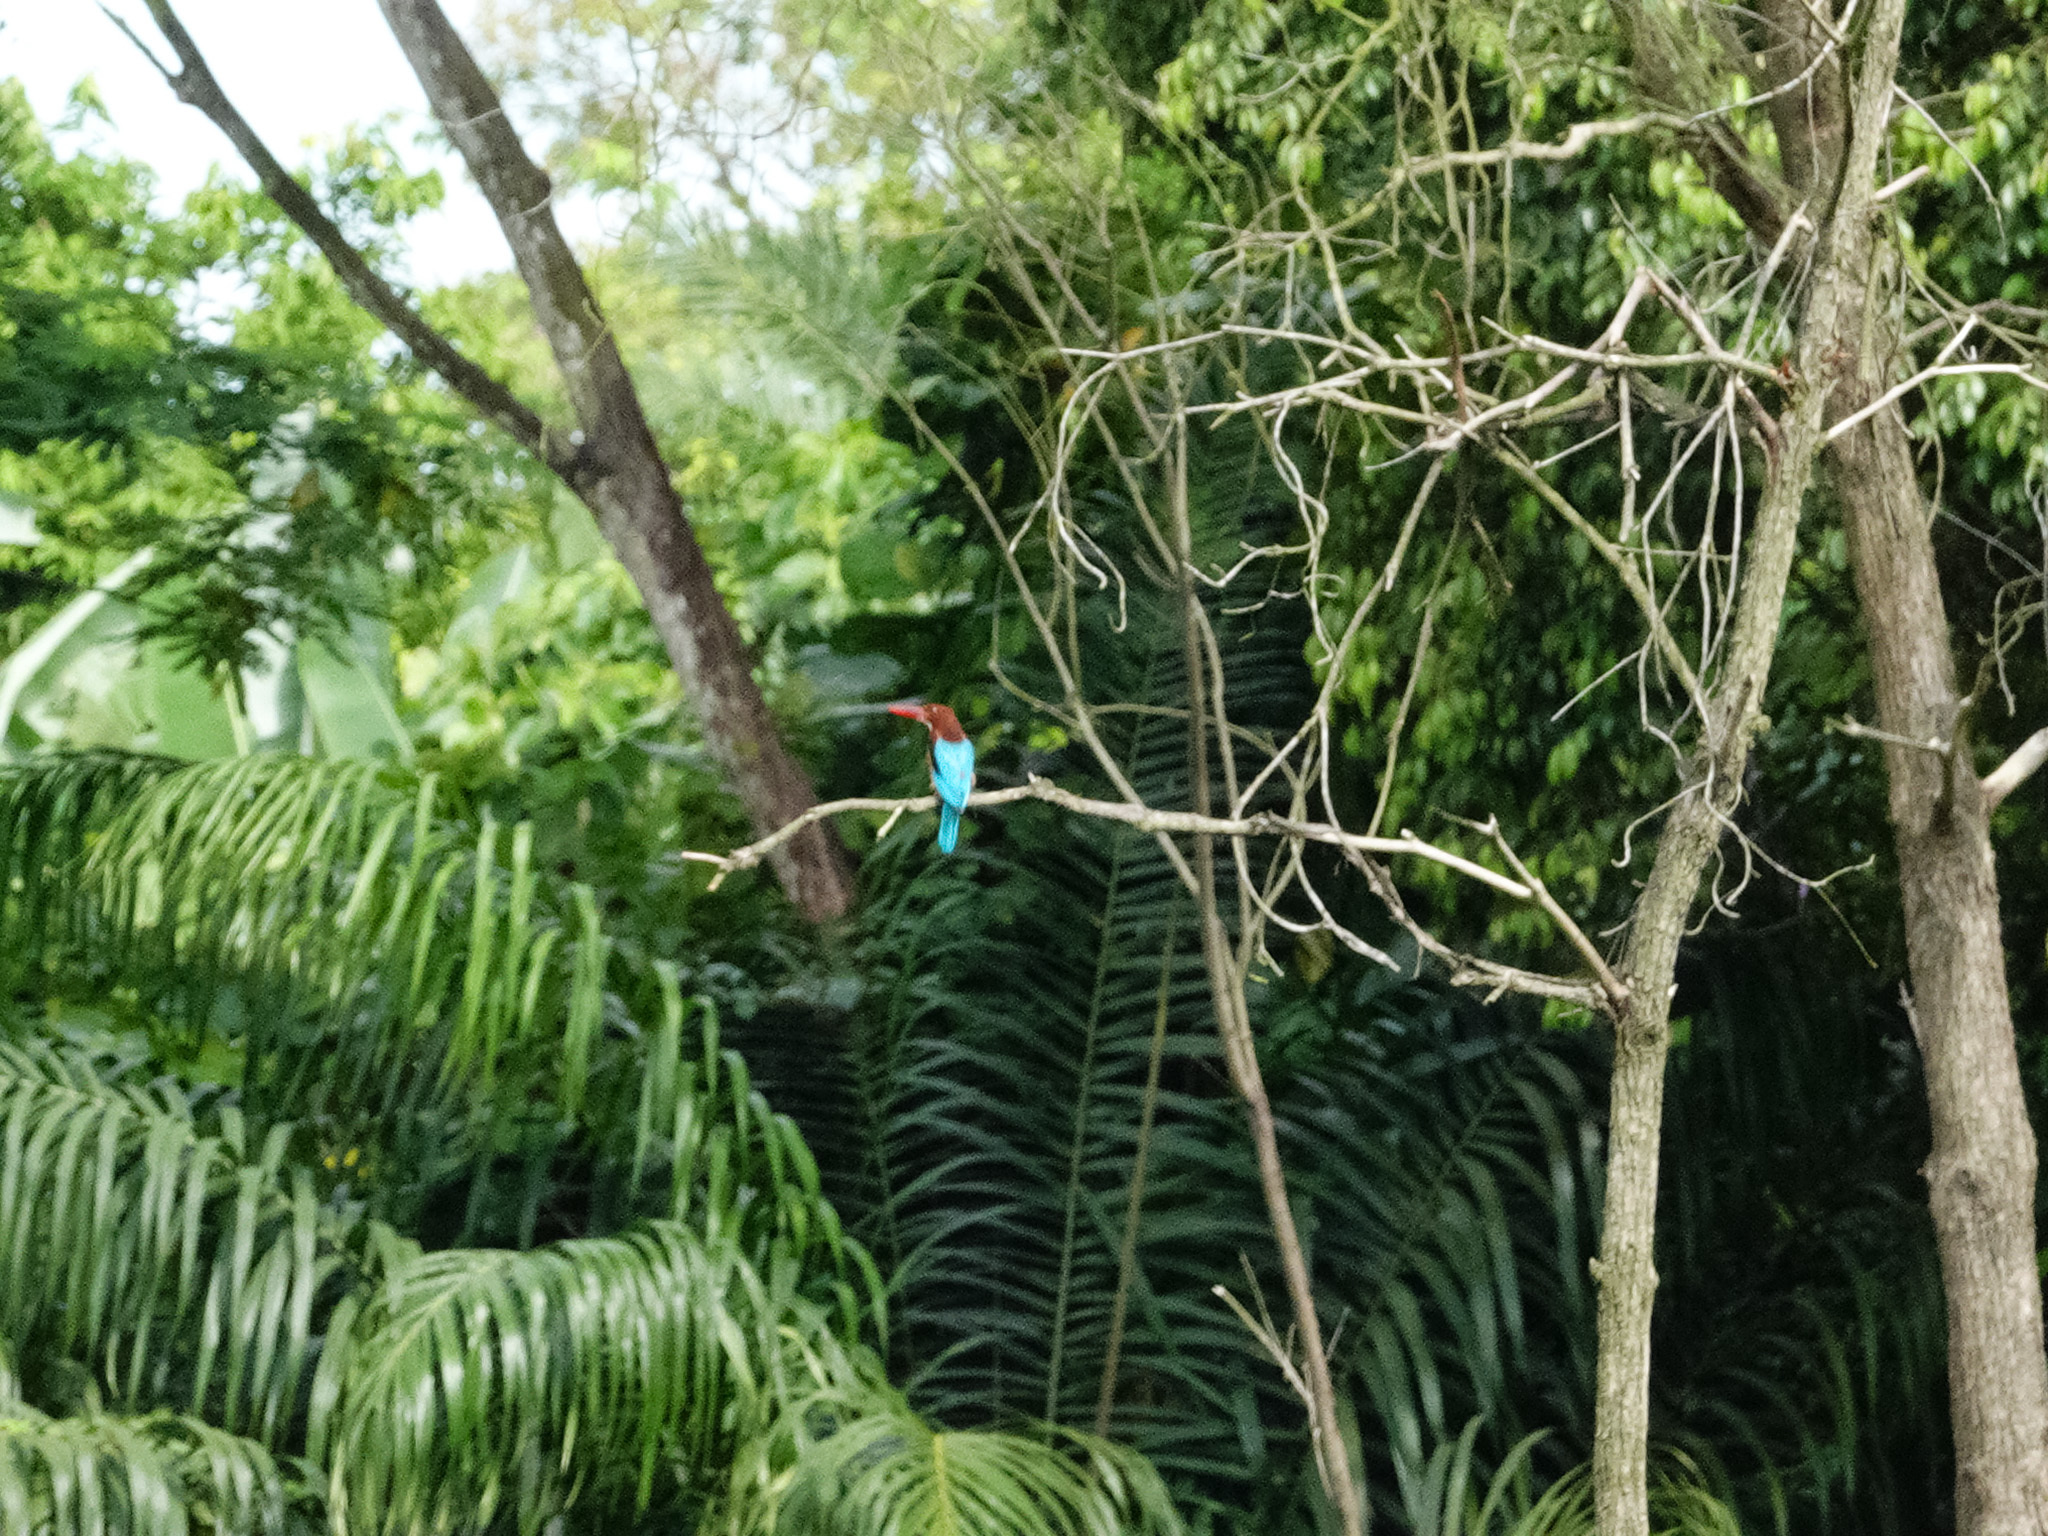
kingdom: Animalia
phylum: Chordata
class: Aves
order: Coraciiformes
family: Alcedinidae
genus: Halcyon
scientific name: Halcyon smyrnensis
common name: White-throated kingfisher
